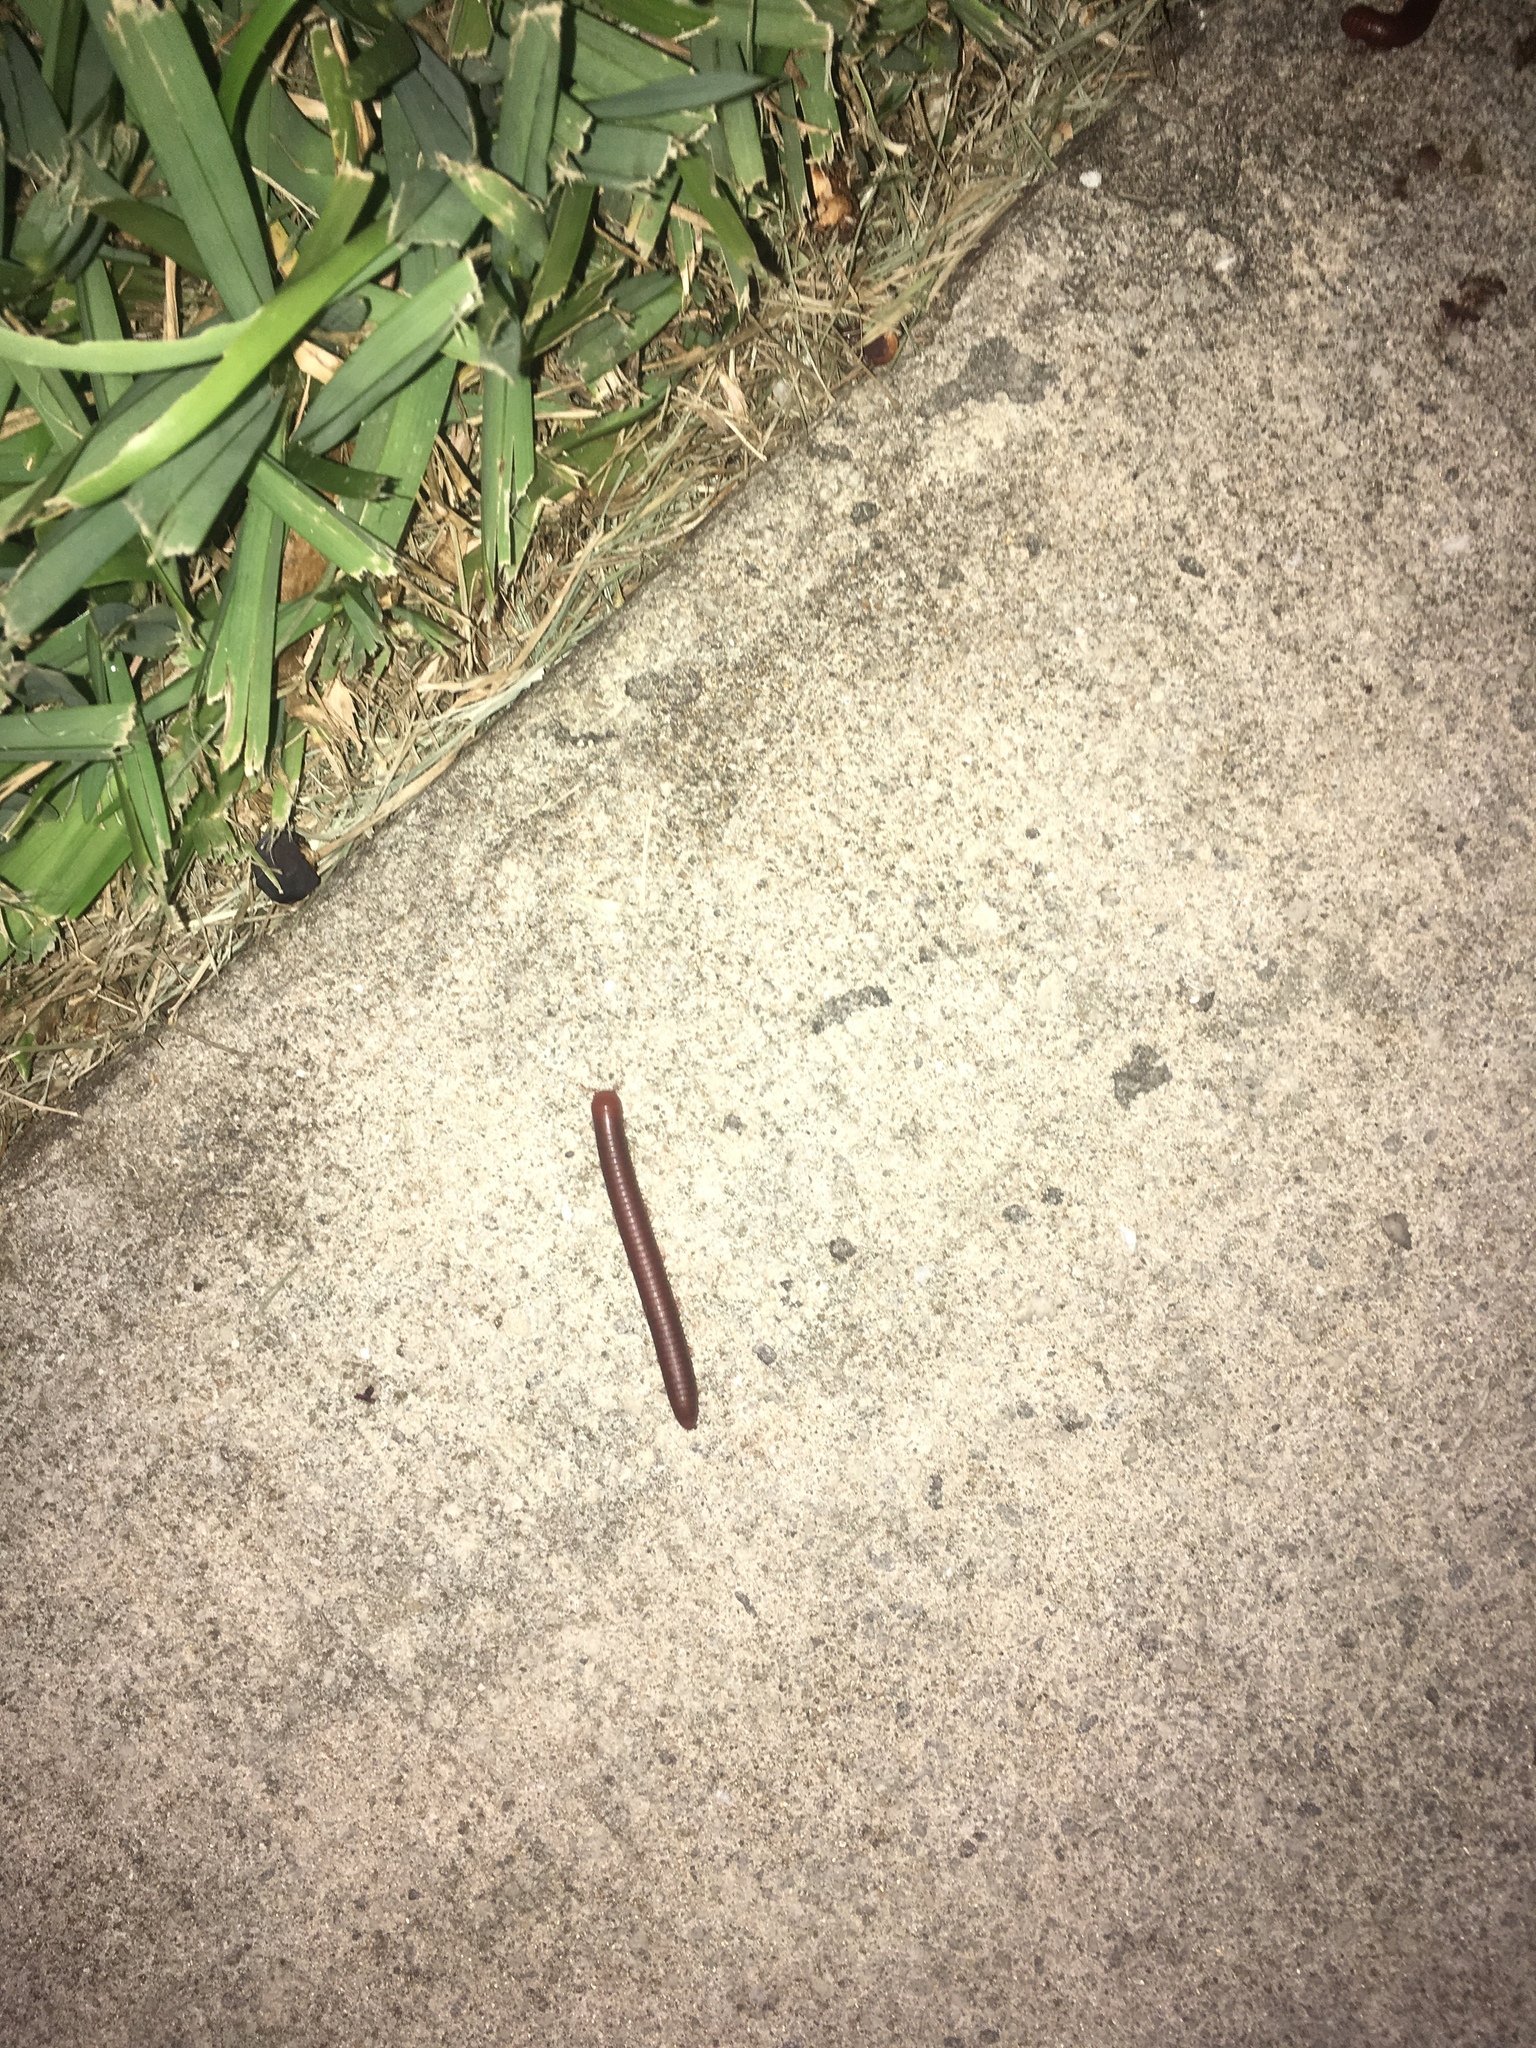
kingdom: Animalia
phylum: Arthropoda
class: Diplopoda
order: Spirobolida
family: Pachybolidae
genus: Trigoniulus
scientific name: Trigoniulus corallinus
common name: Millipede
